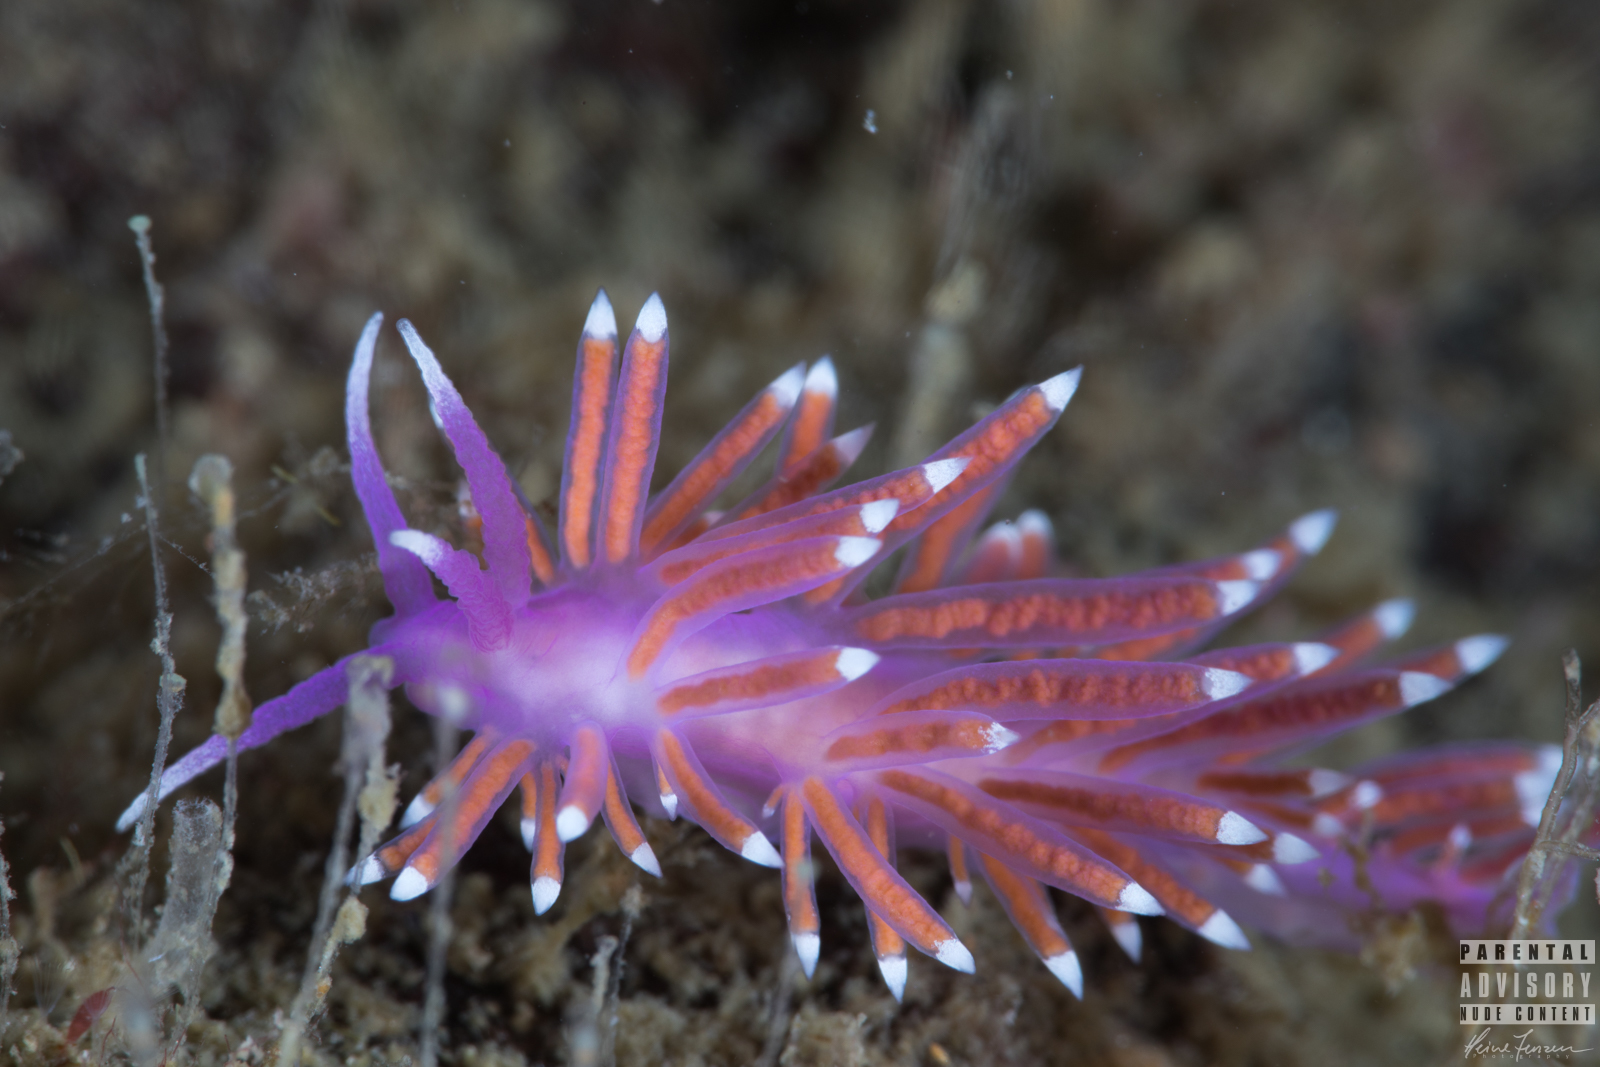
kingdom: Animalia
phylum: Mollusca
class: Gastropoda
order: Nudibranchia
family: Flabellinidae
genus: Edmundsella
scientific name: Edmundsella pedata
